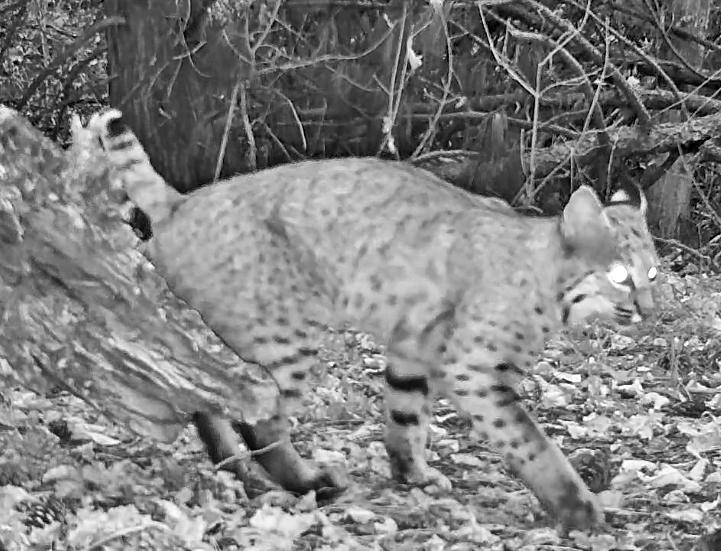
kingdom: Animalia
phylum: Chordata
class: Mammalia
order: Carnivora
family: Felidae
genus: Lynx
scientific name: Lynx rufus
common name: Bobcat
